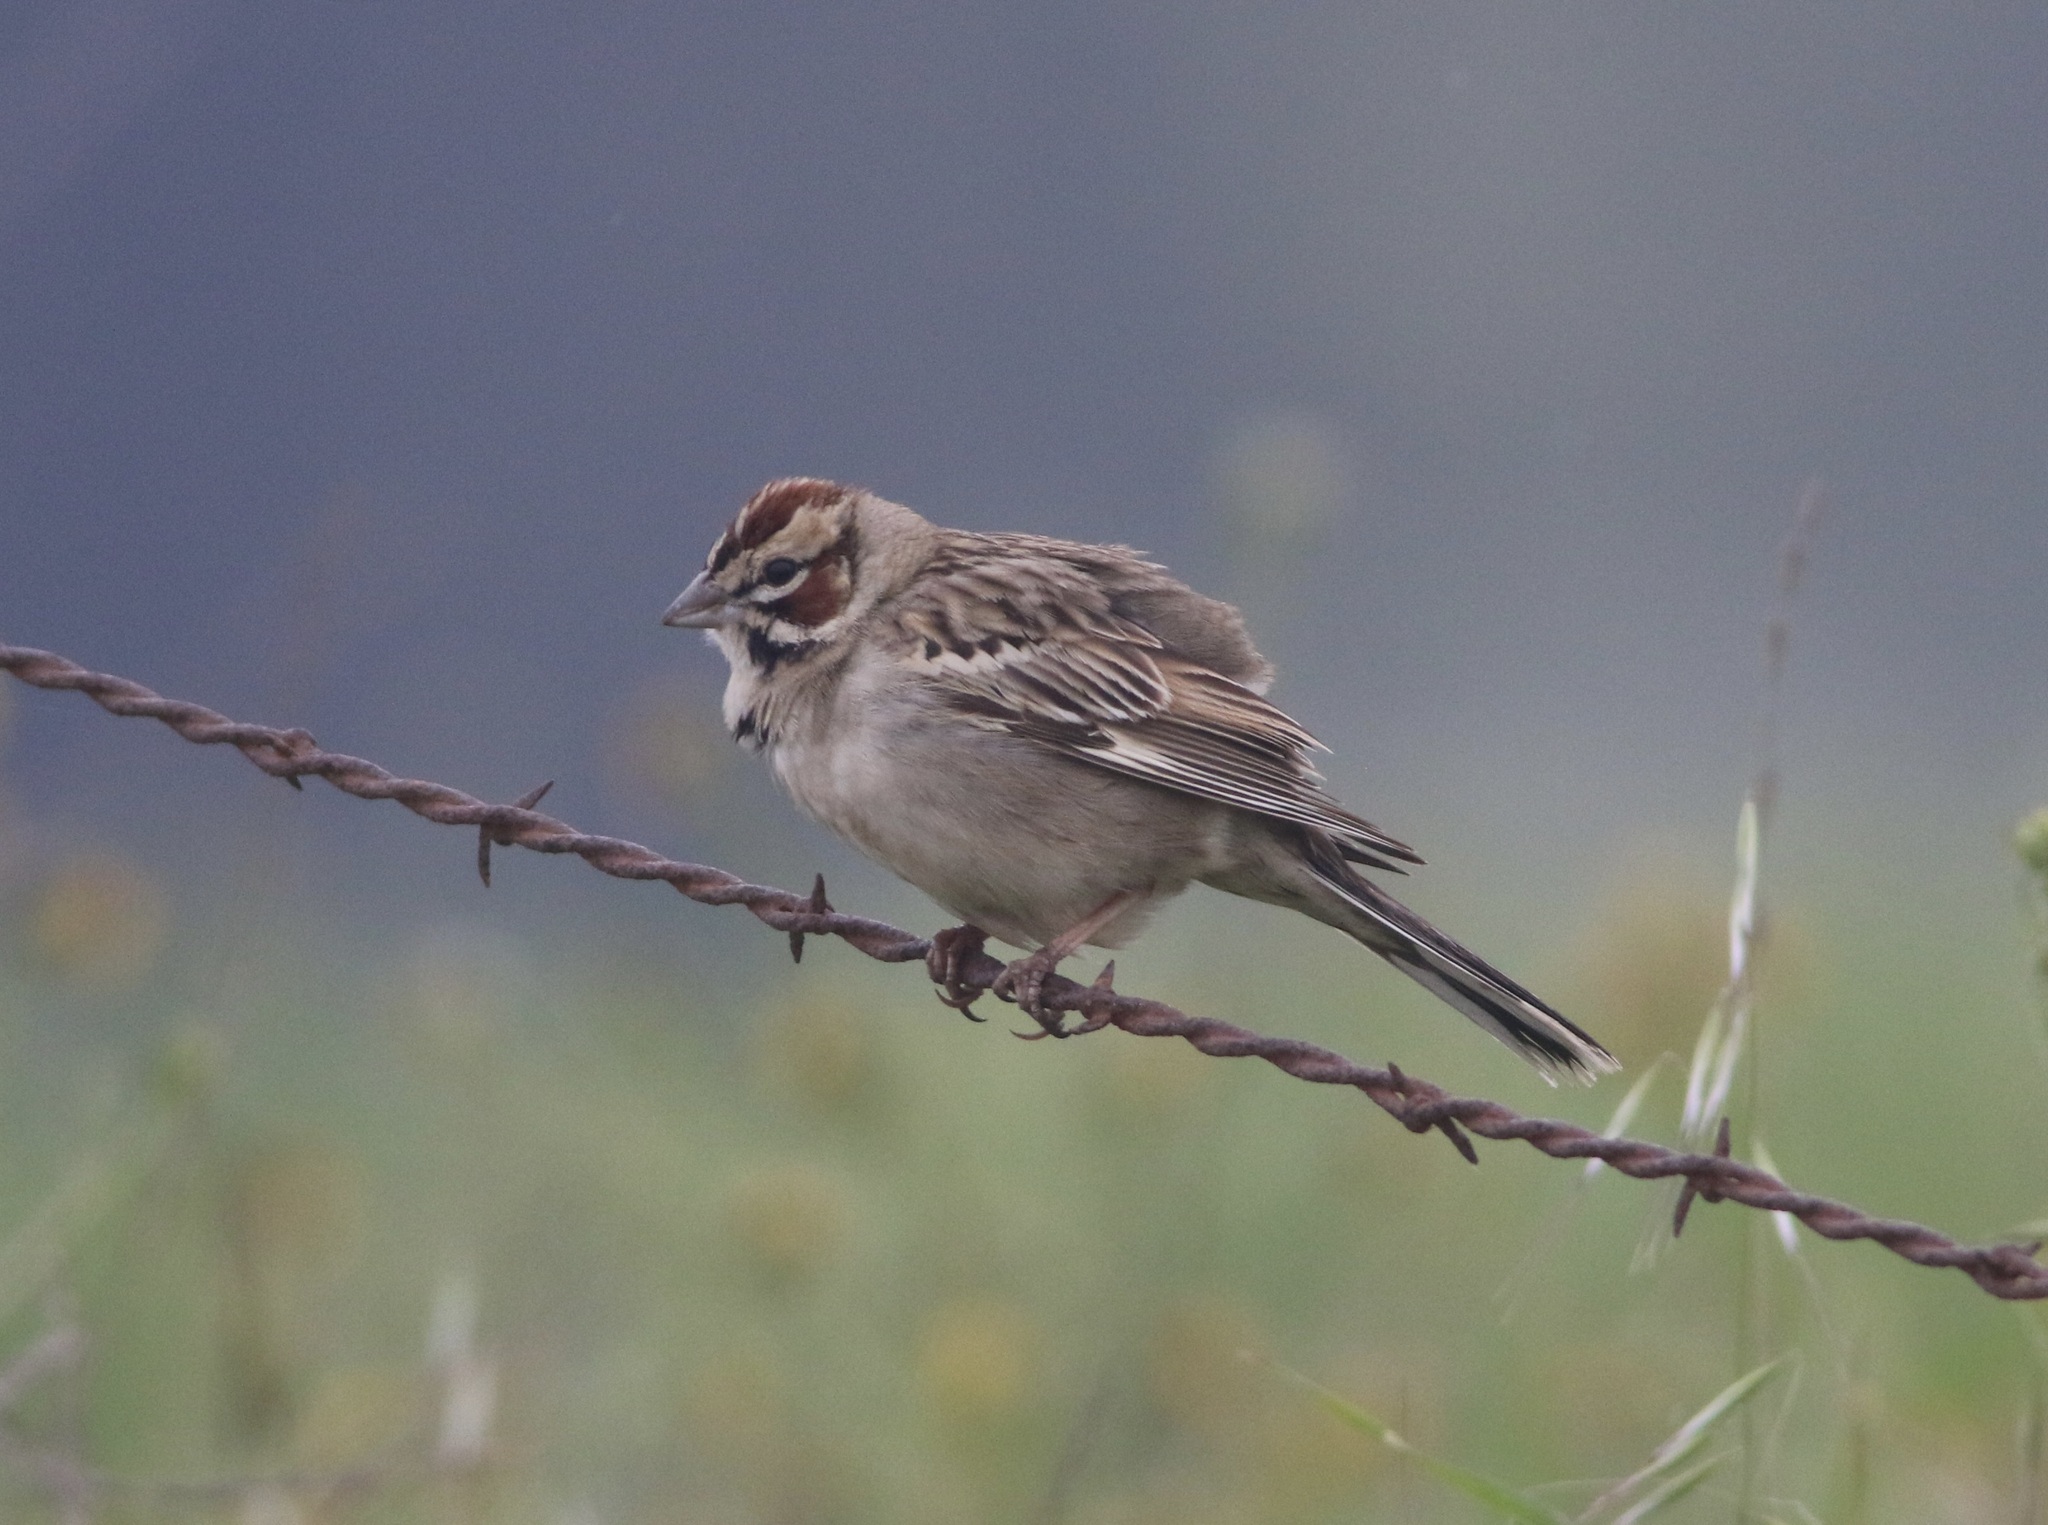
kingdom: Animalia
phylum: Chordata
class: Aves
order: Passeriformes
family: Passerellidae
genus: Chondestes
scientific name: Chondestes grammacus
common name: Lark sparrow
